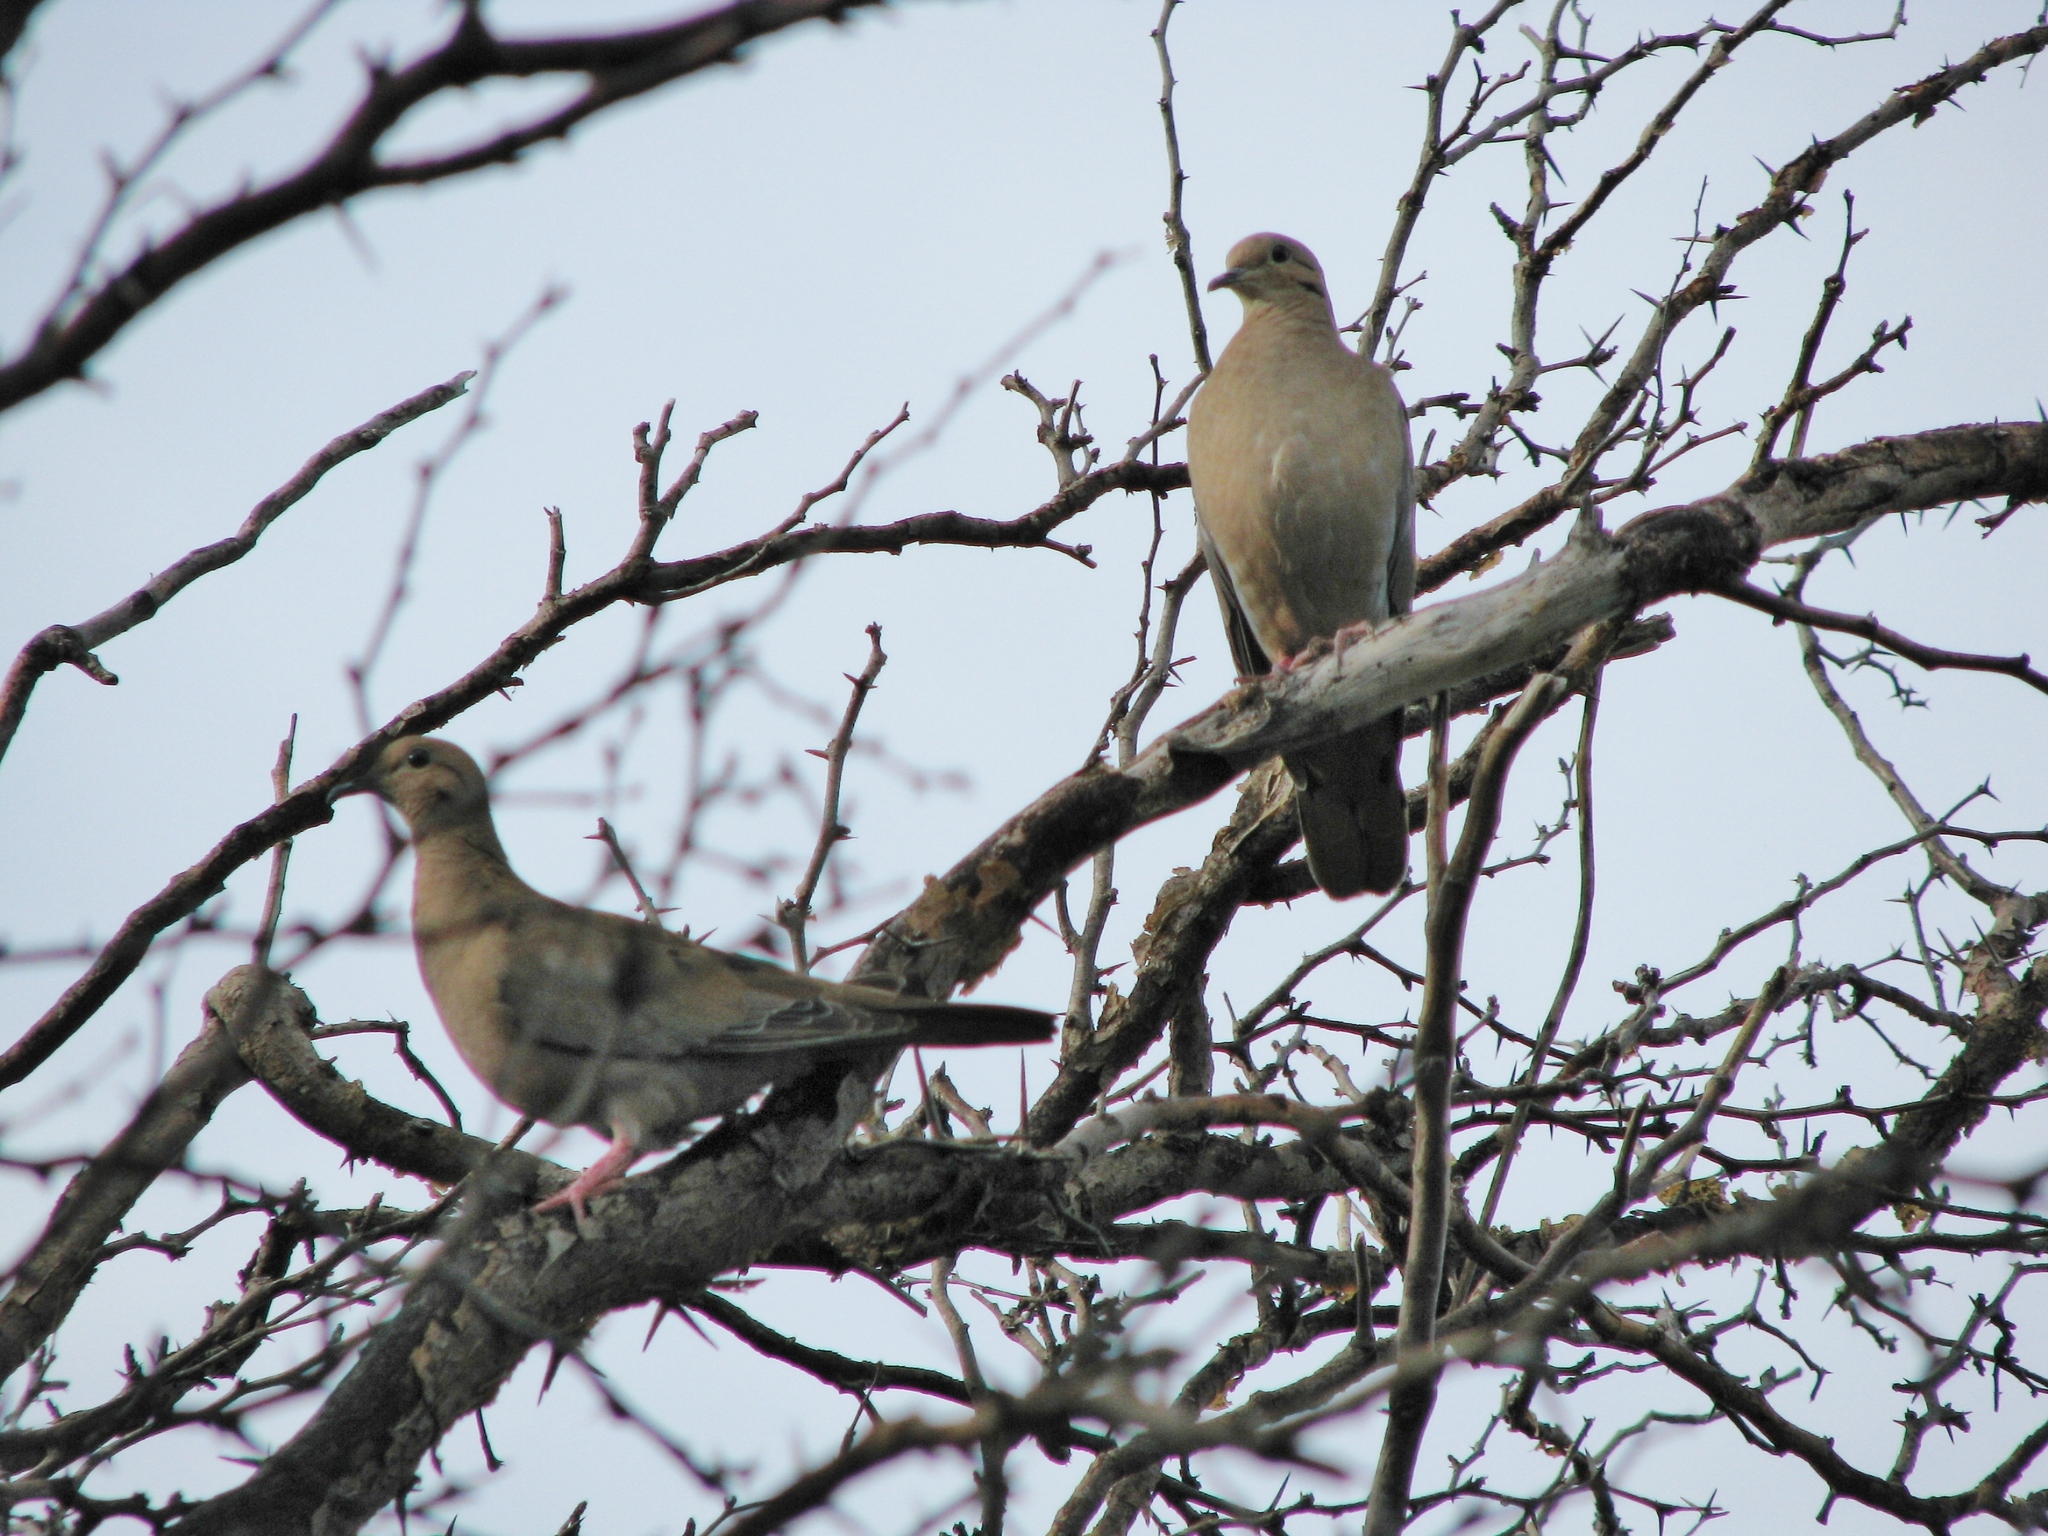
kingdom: Animalia
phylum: Chordata
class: Aves
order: Columbiformes
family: Columbidae
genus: Zenaida
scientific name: Zenaida auriculata
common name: Eared dove
